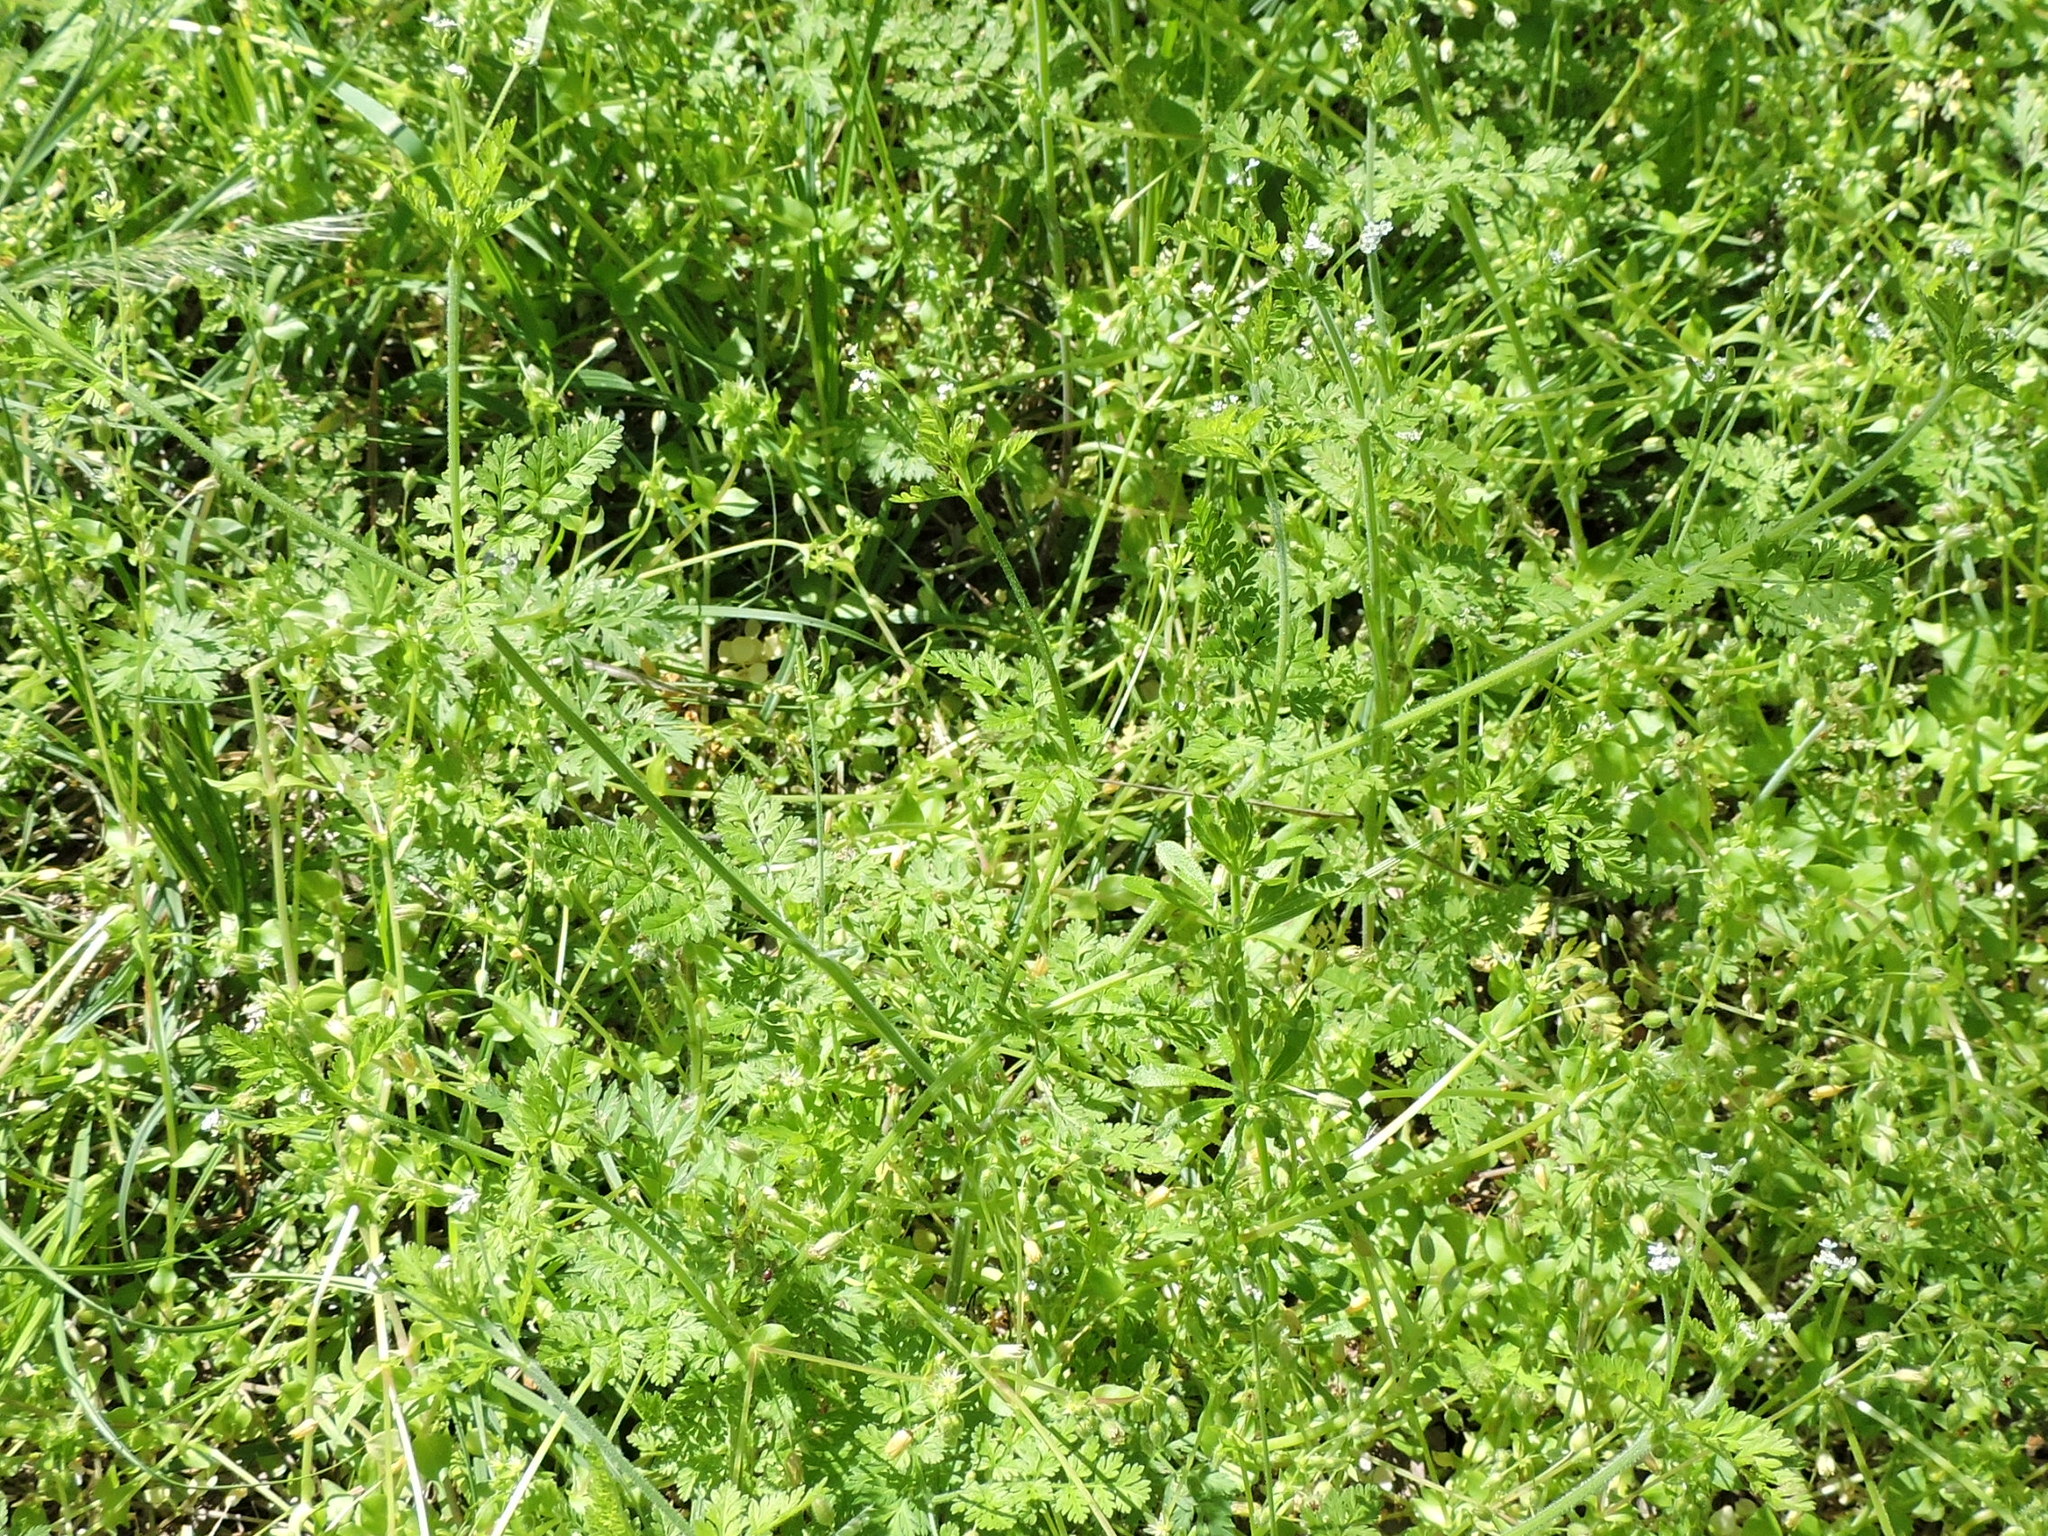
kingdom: Plantae
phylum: Tracheophyta
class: Magnoliopsida
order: Apiales
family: Apiaceae
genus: Chaerophyllum
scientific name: Chaerophyllum tainturieri
